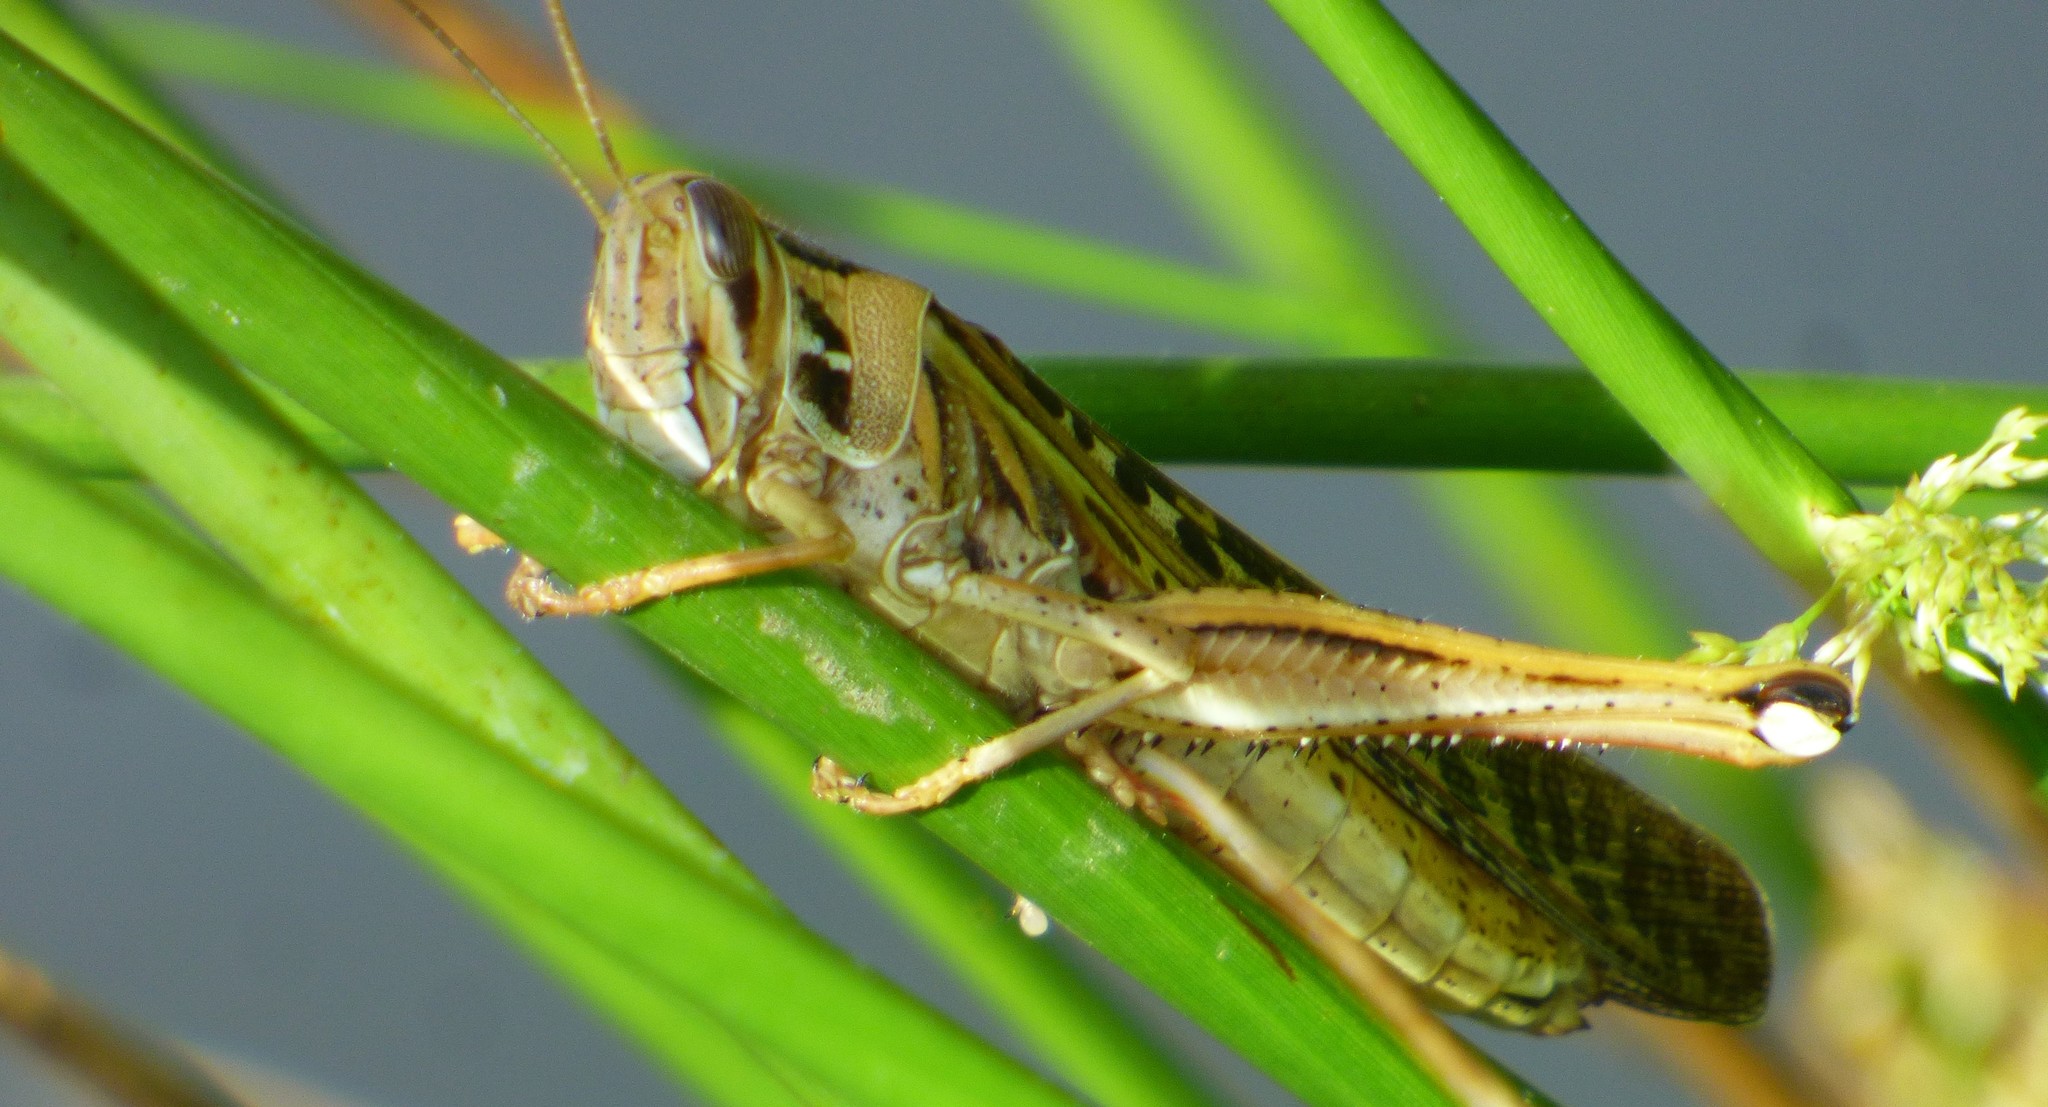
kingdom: Animalia
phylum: Arthropoda
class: Insecta
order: Orthoptera
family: Acrididae
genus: Schistocerca
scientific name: Schistocerca americana
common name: American bird locust
